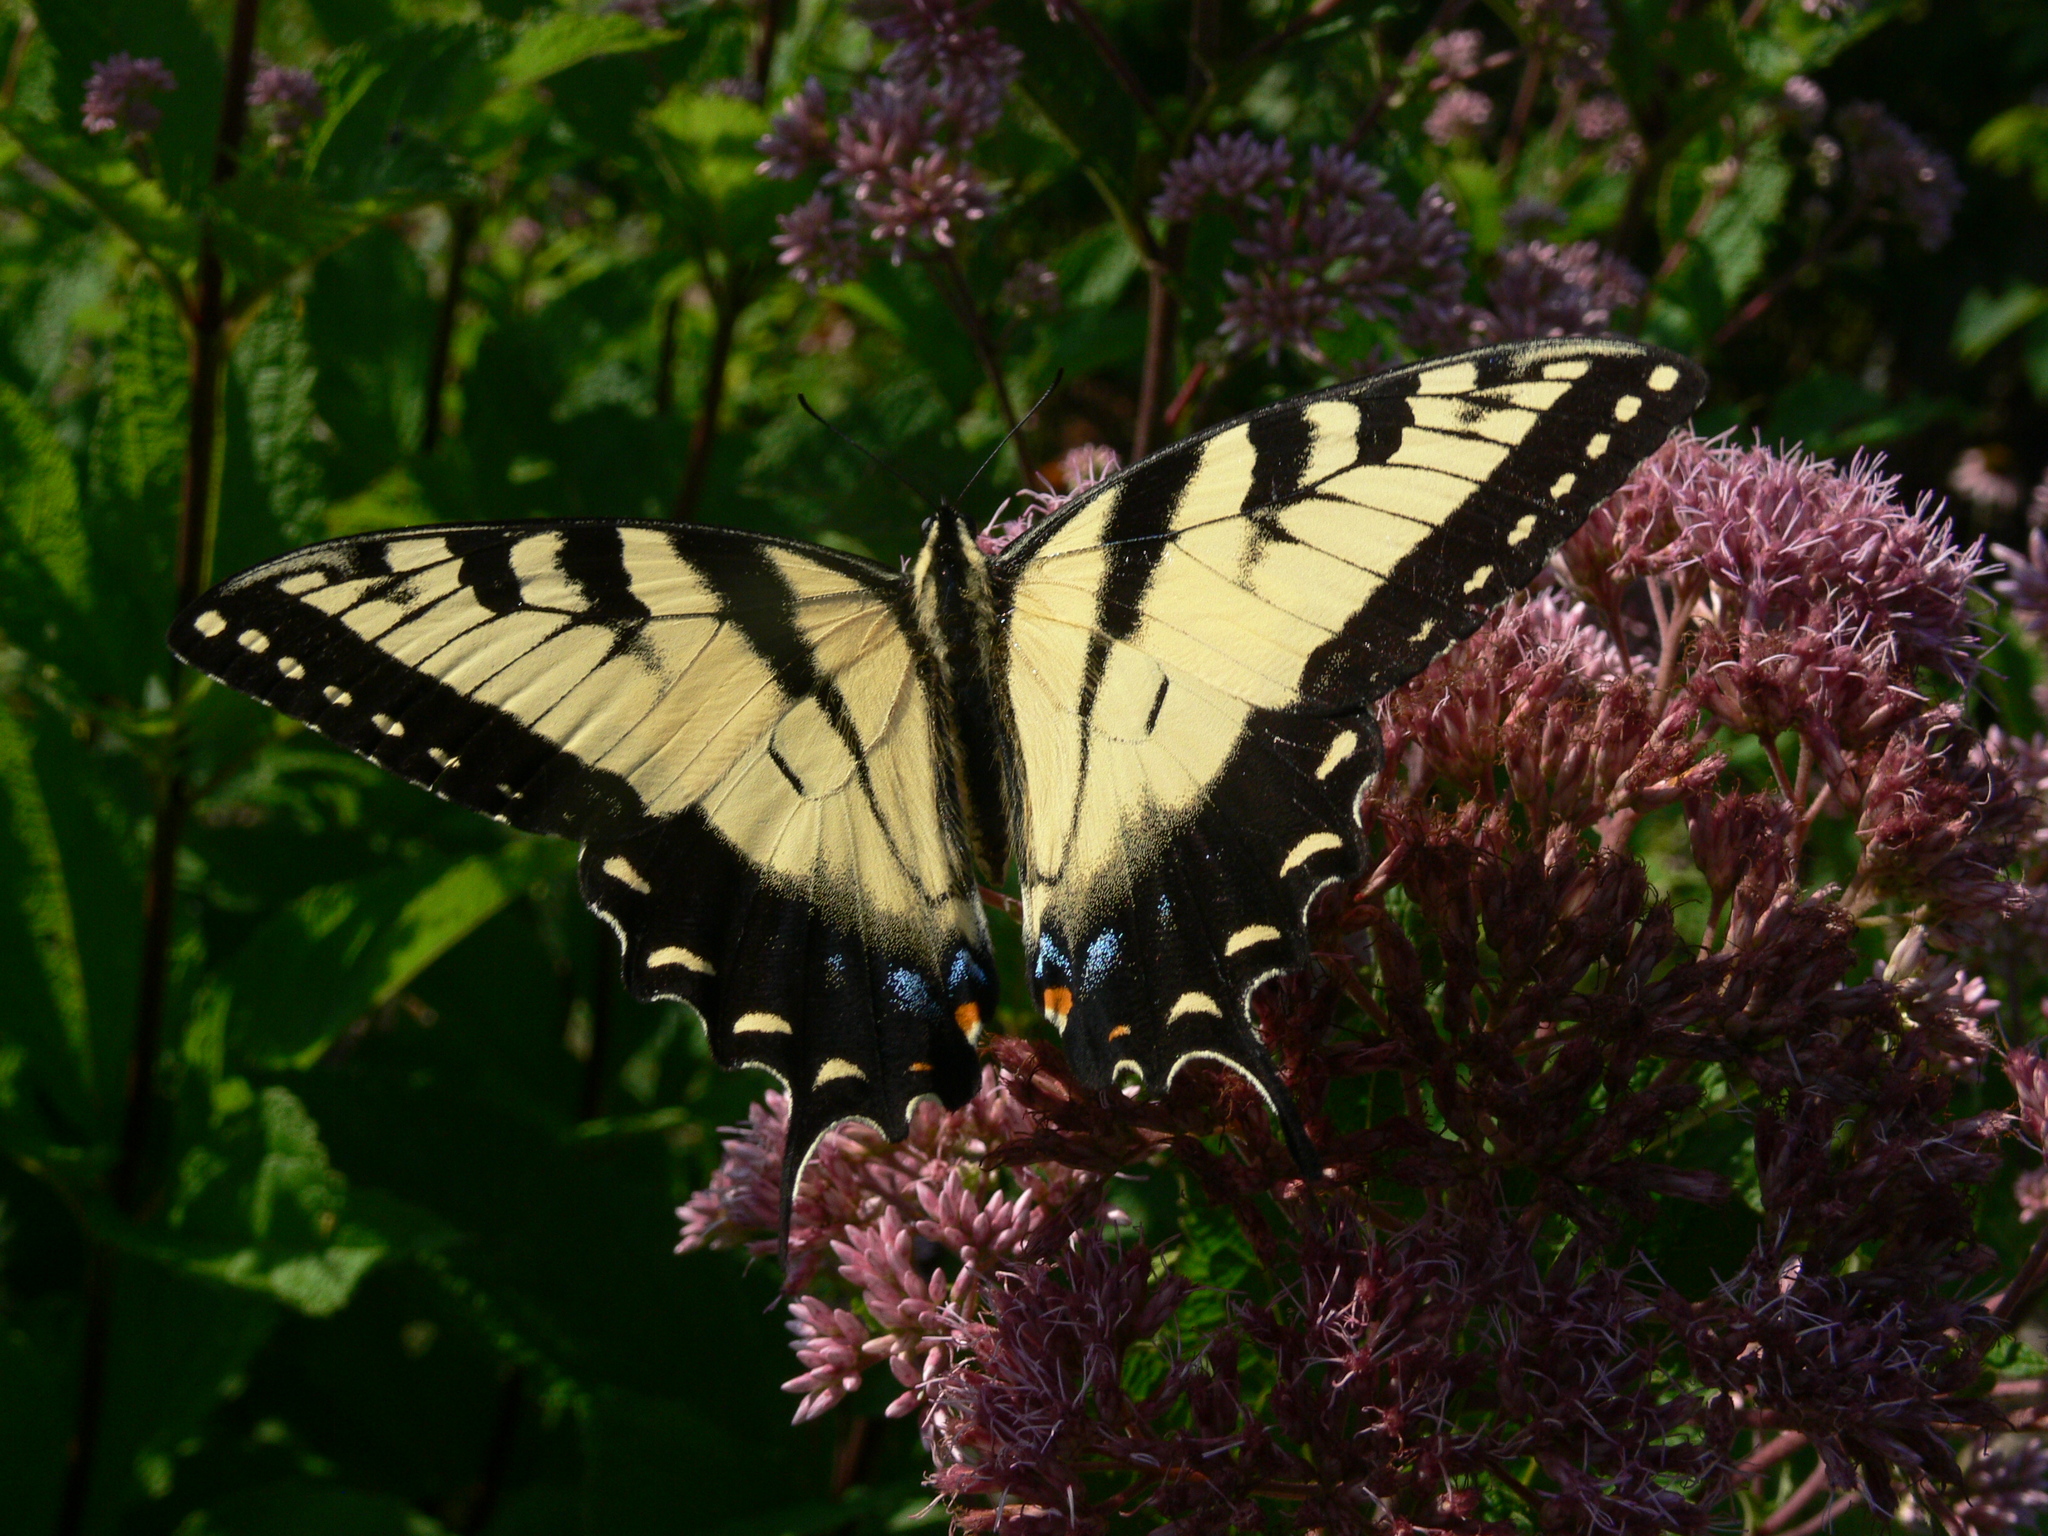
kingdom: Animalia
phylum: Arthropoda
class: Insecta
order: Lepidoptera
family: Papilionidae
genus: Papilio
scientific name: Papilio glaucus
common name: Tiger swallowtail
